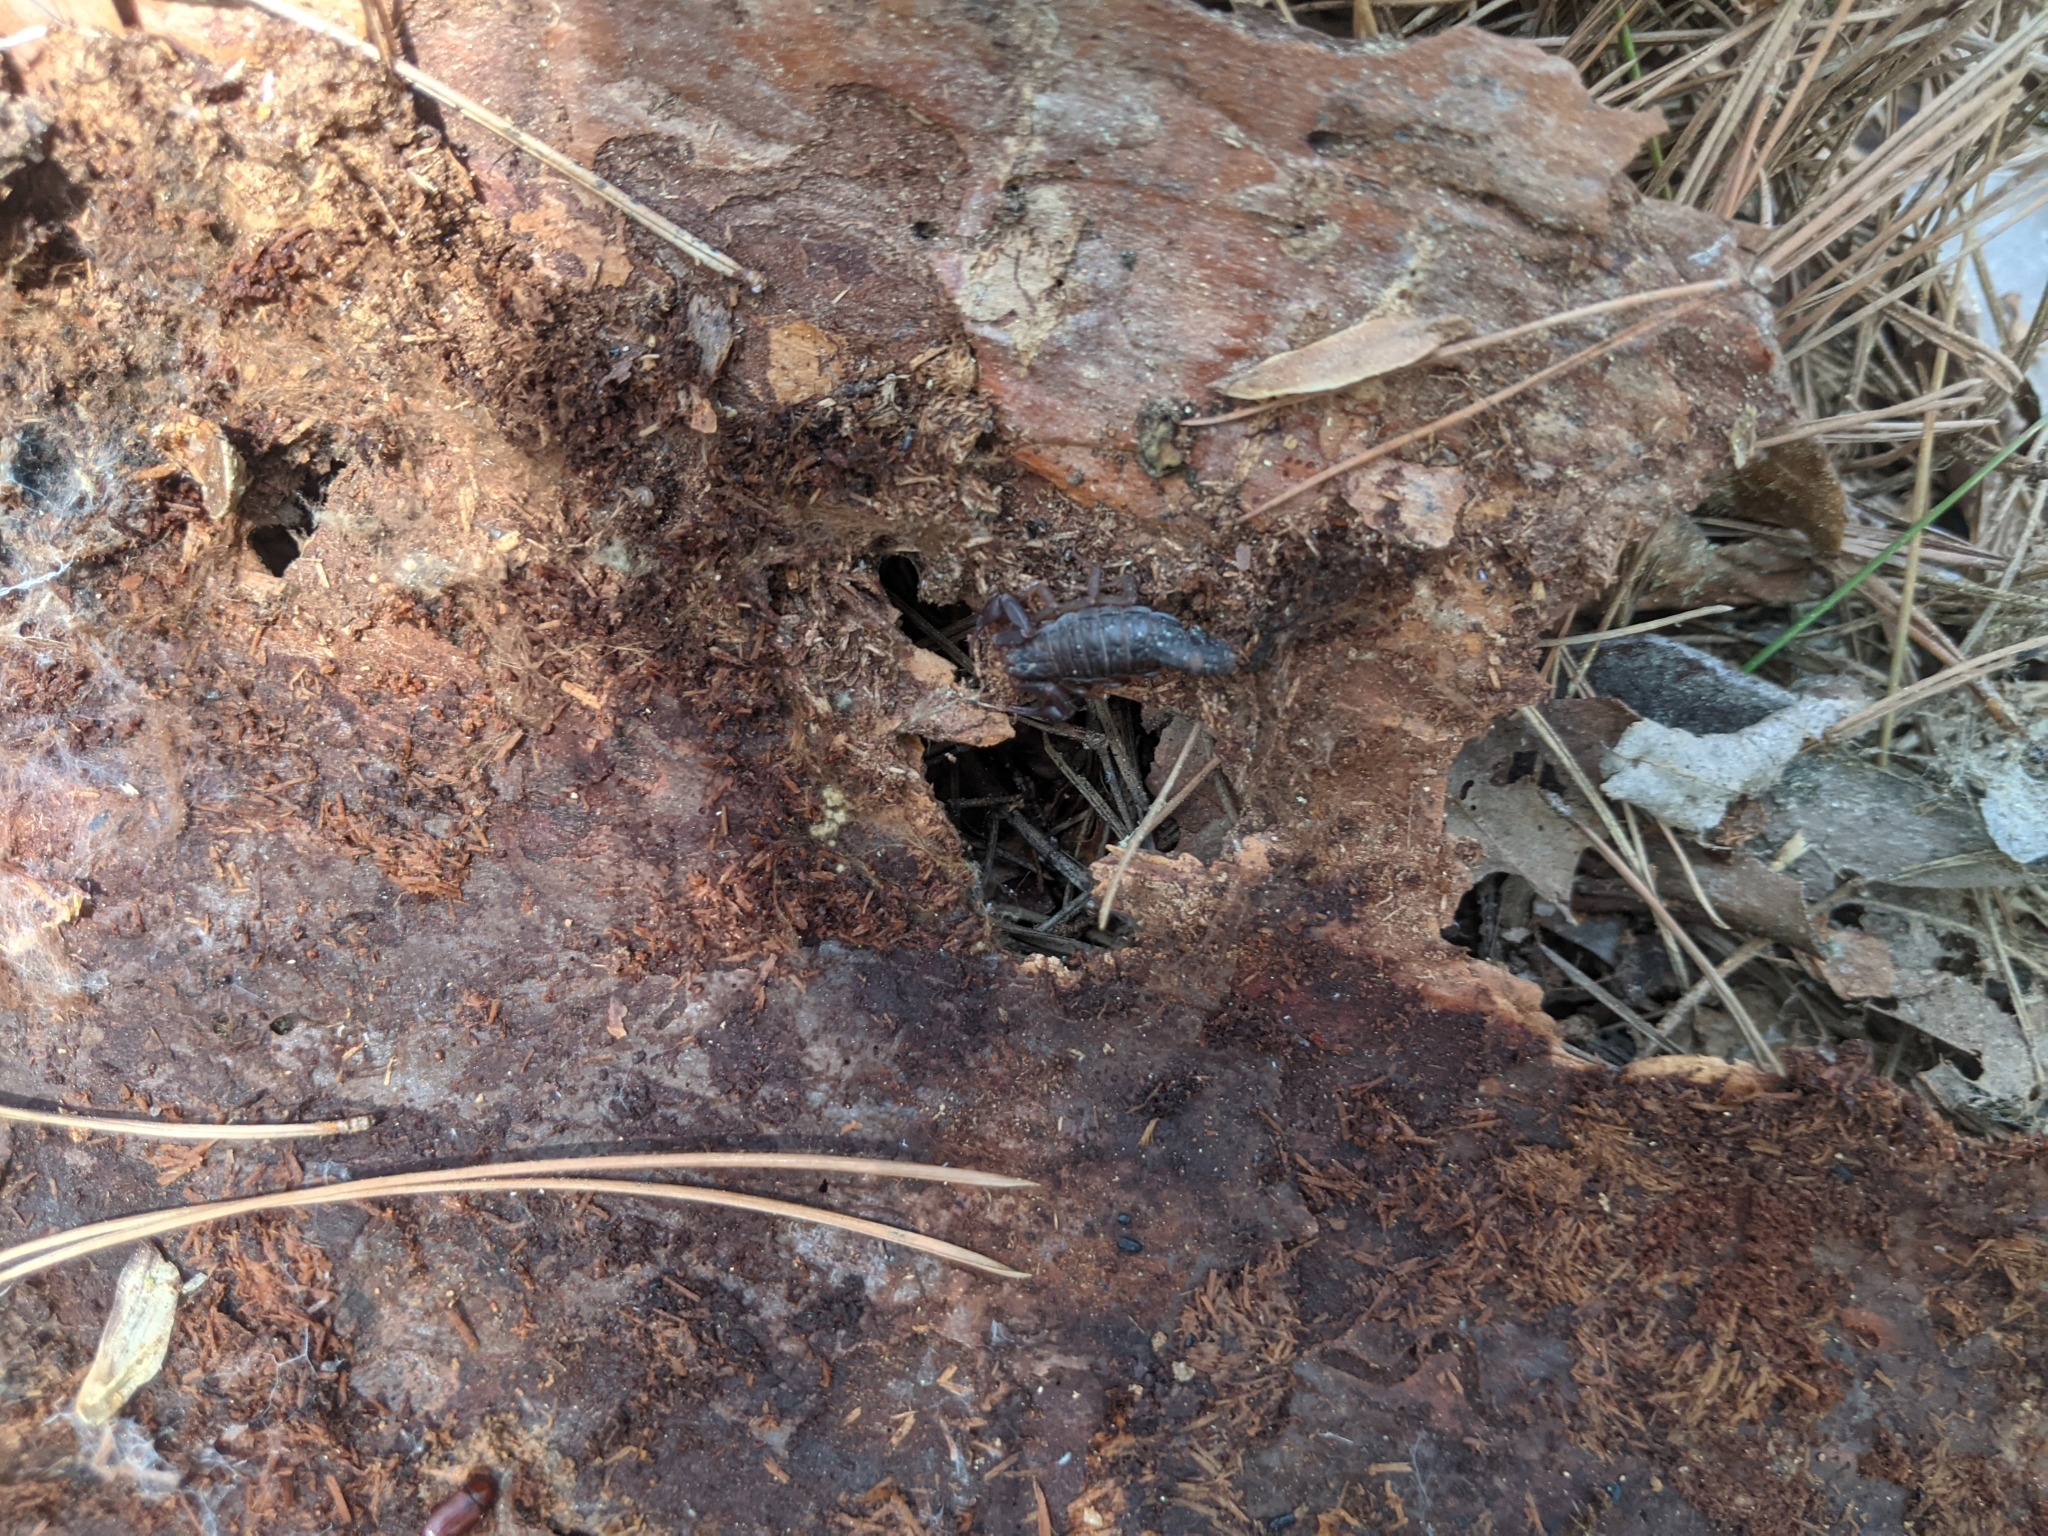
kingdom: Animalia
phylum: Arthropoda
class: Arachnida
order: Scorpiones
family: Vaejovidae
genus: Vaejovis
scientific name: Vaejovis carolinianus
